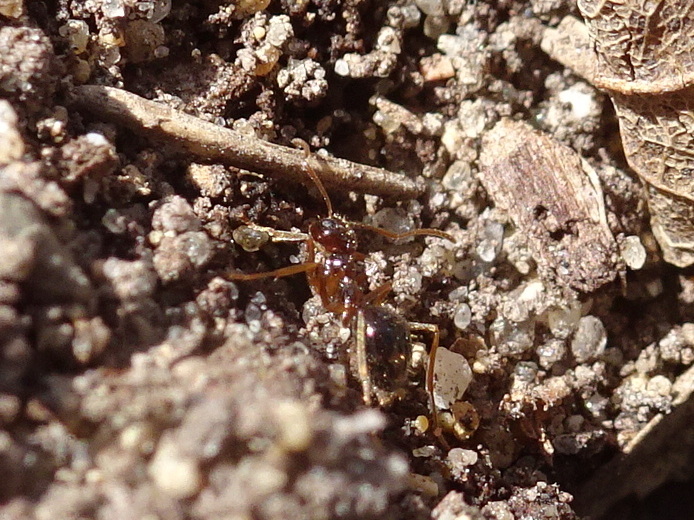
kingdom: Animalia
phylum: Arthropoda
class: Insecta
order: Hymenoptera
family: Formicidae
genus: Prenolepis
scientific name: Prenolepis imparis
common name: Small honey ant
